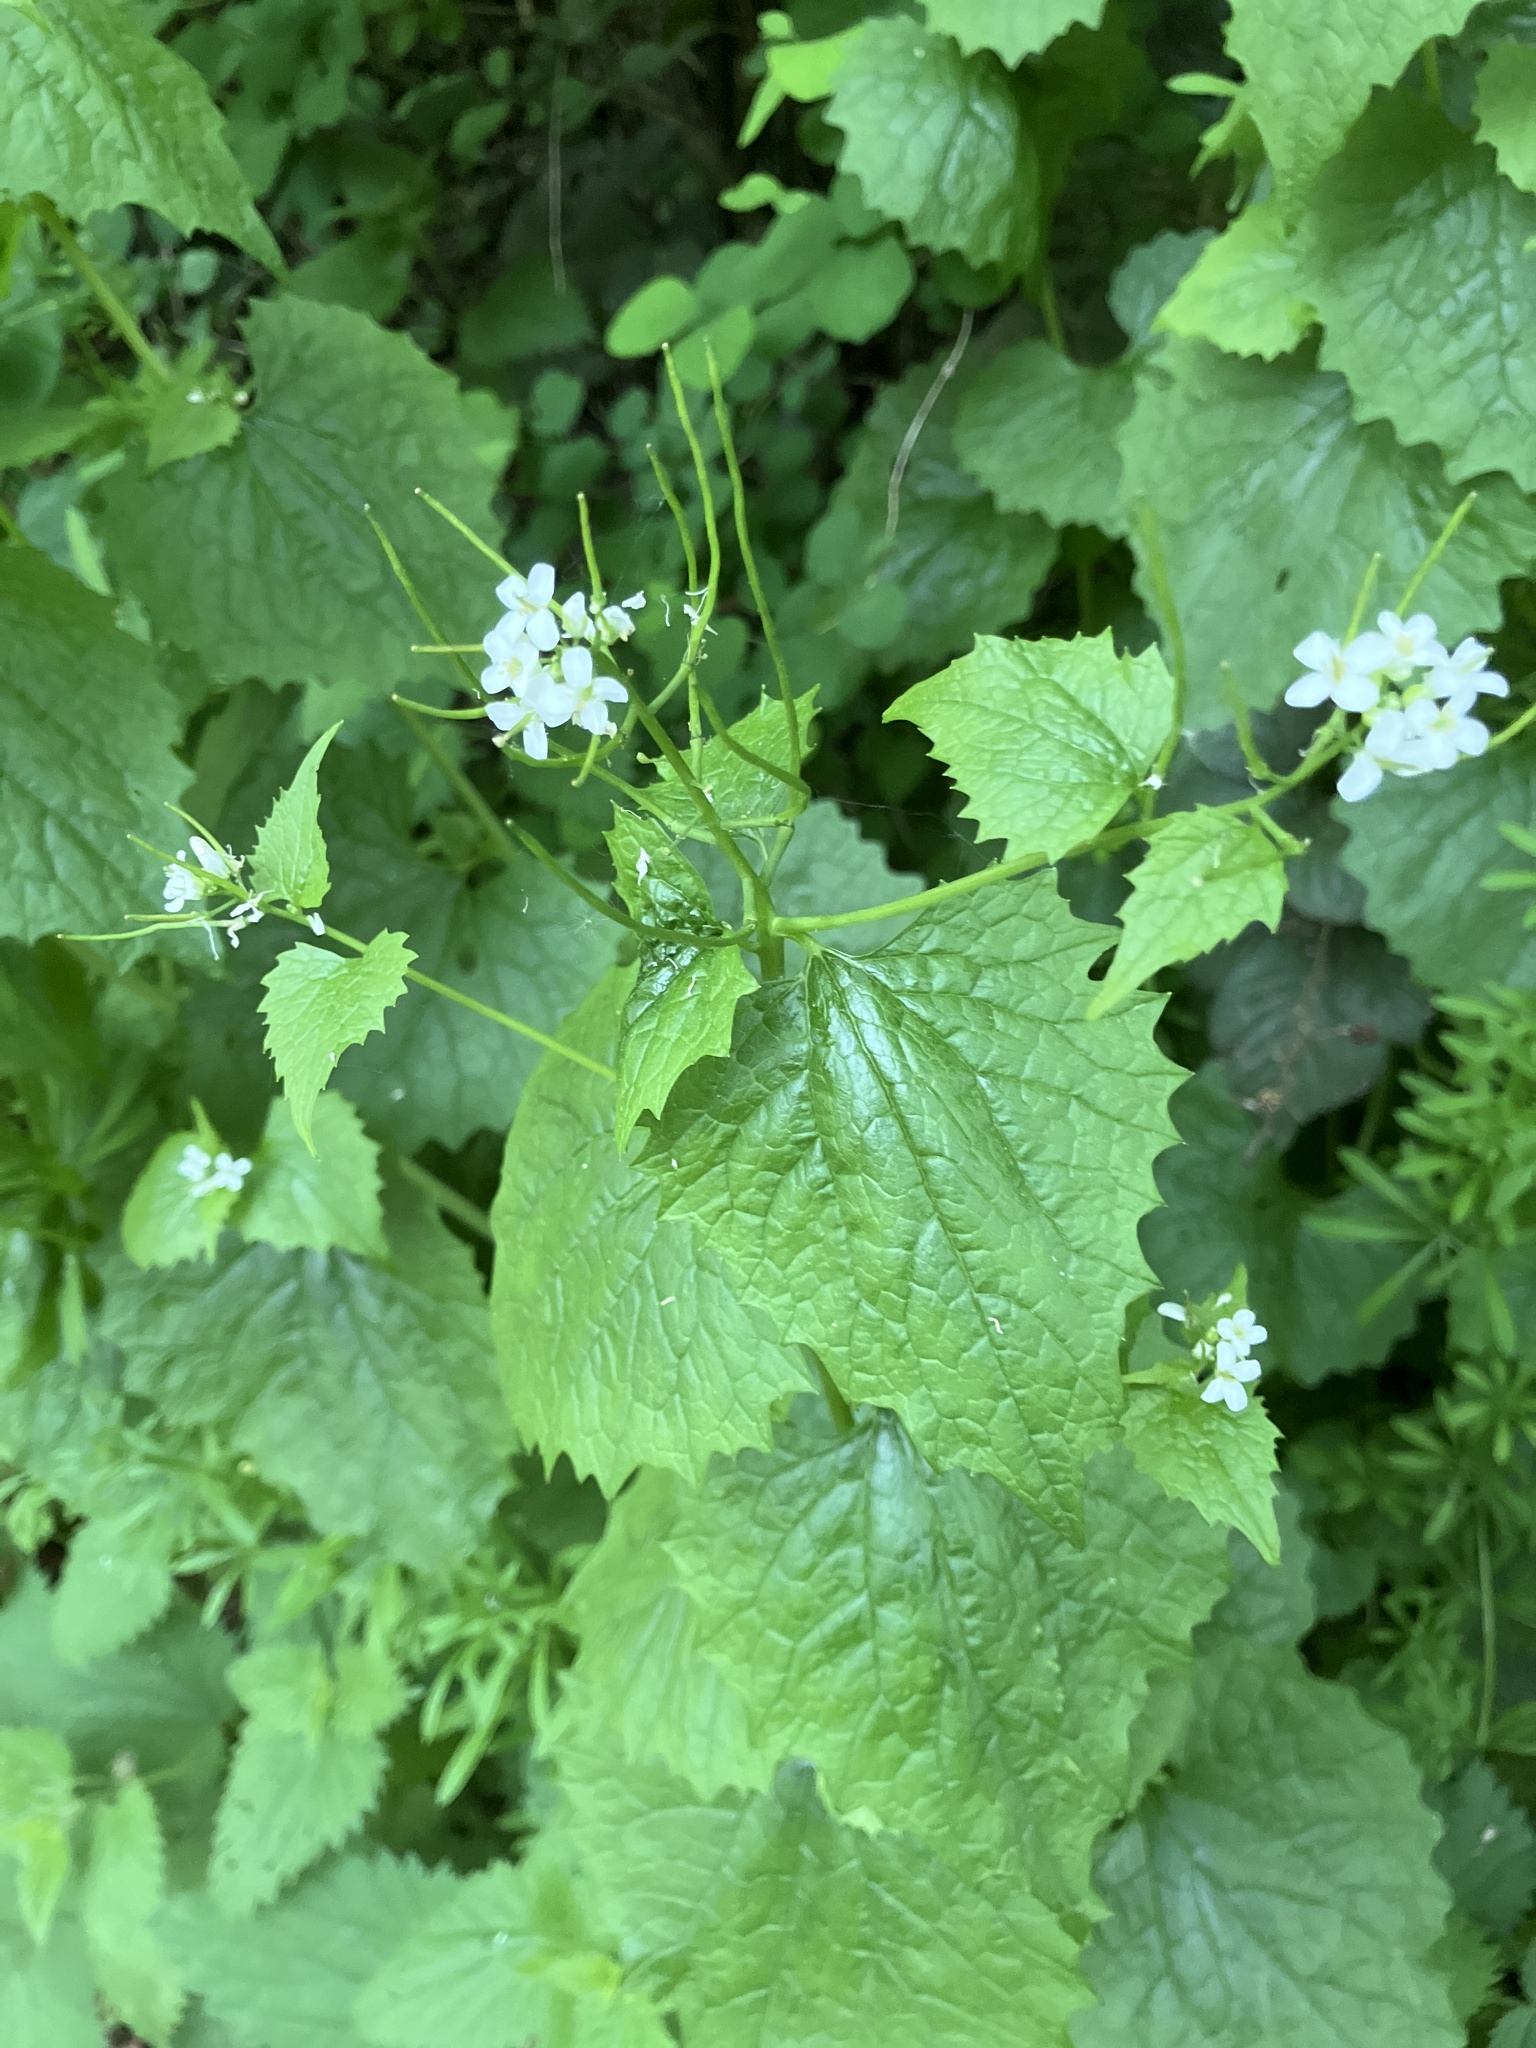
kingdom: Plantae
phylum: Tracheophyta
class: Magnoliopsida
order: Brassicales
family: Brassicaceae
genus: Alliaria
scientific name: Alliaria petiolata
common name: Garlic mustard
